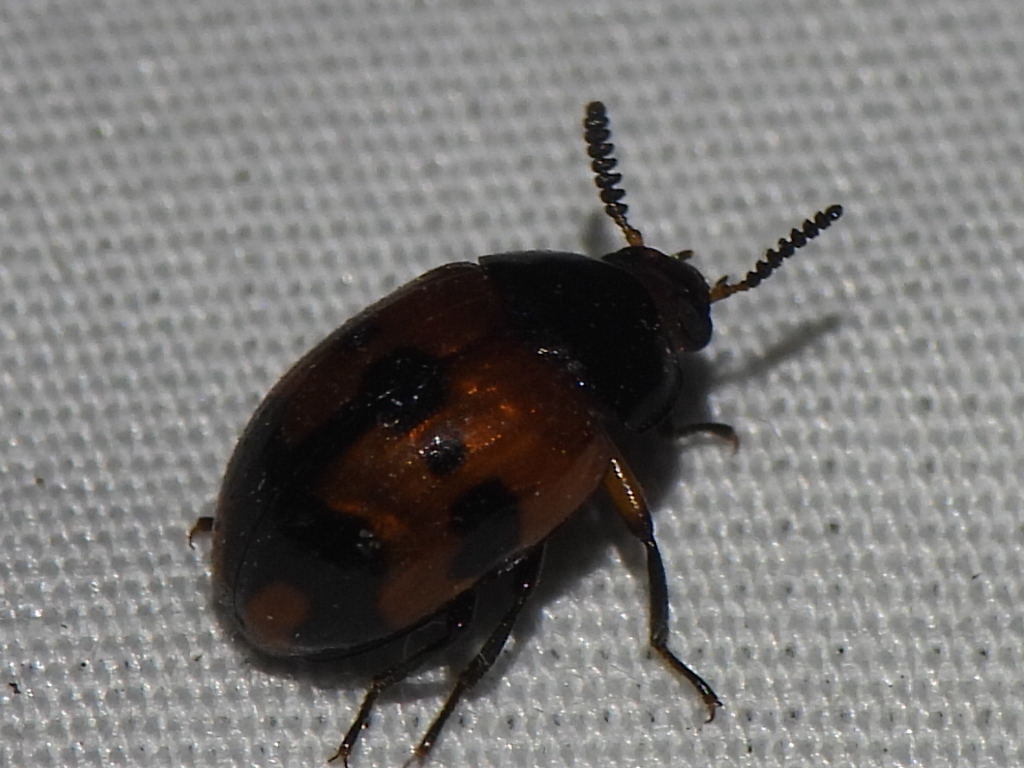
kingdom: Animalia
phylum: Arthropoda
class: Insecta
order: Coleoptera
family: Tenebrionidae
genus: Diaperis
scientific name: Diaperis nigronotata
